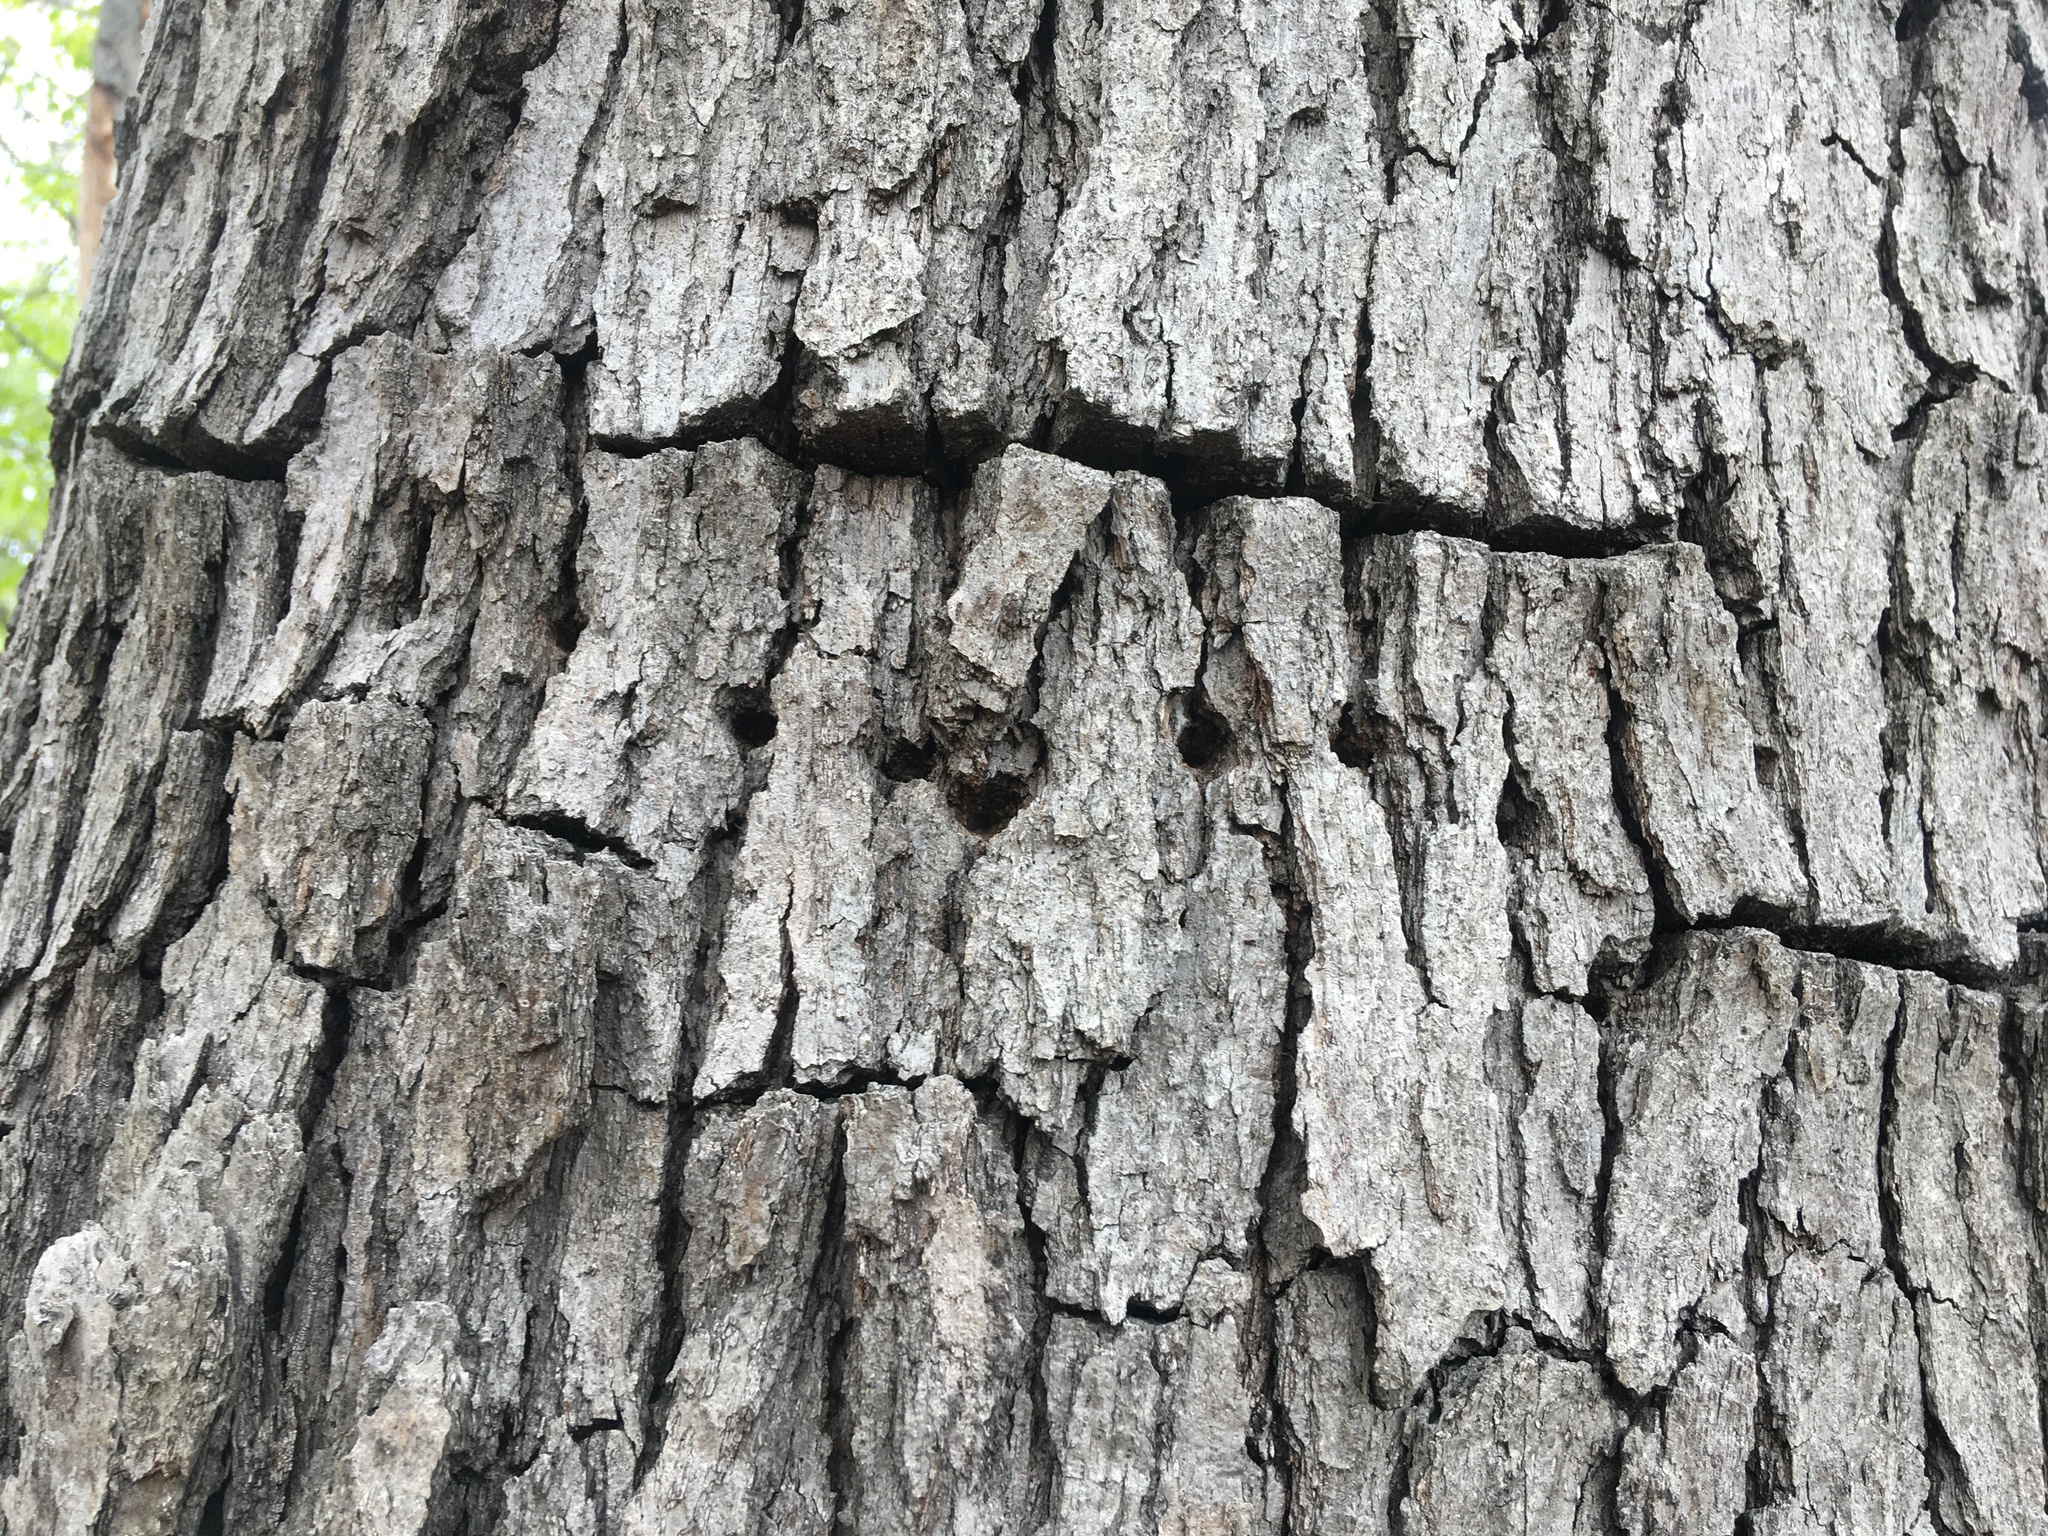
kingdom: Animalia
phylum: Chordata
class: Aves
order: Piciformes
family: Picidae
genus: Sphyrapicus
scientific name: Sphyrapicus varius
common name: Yellow-bellied sapsucker
